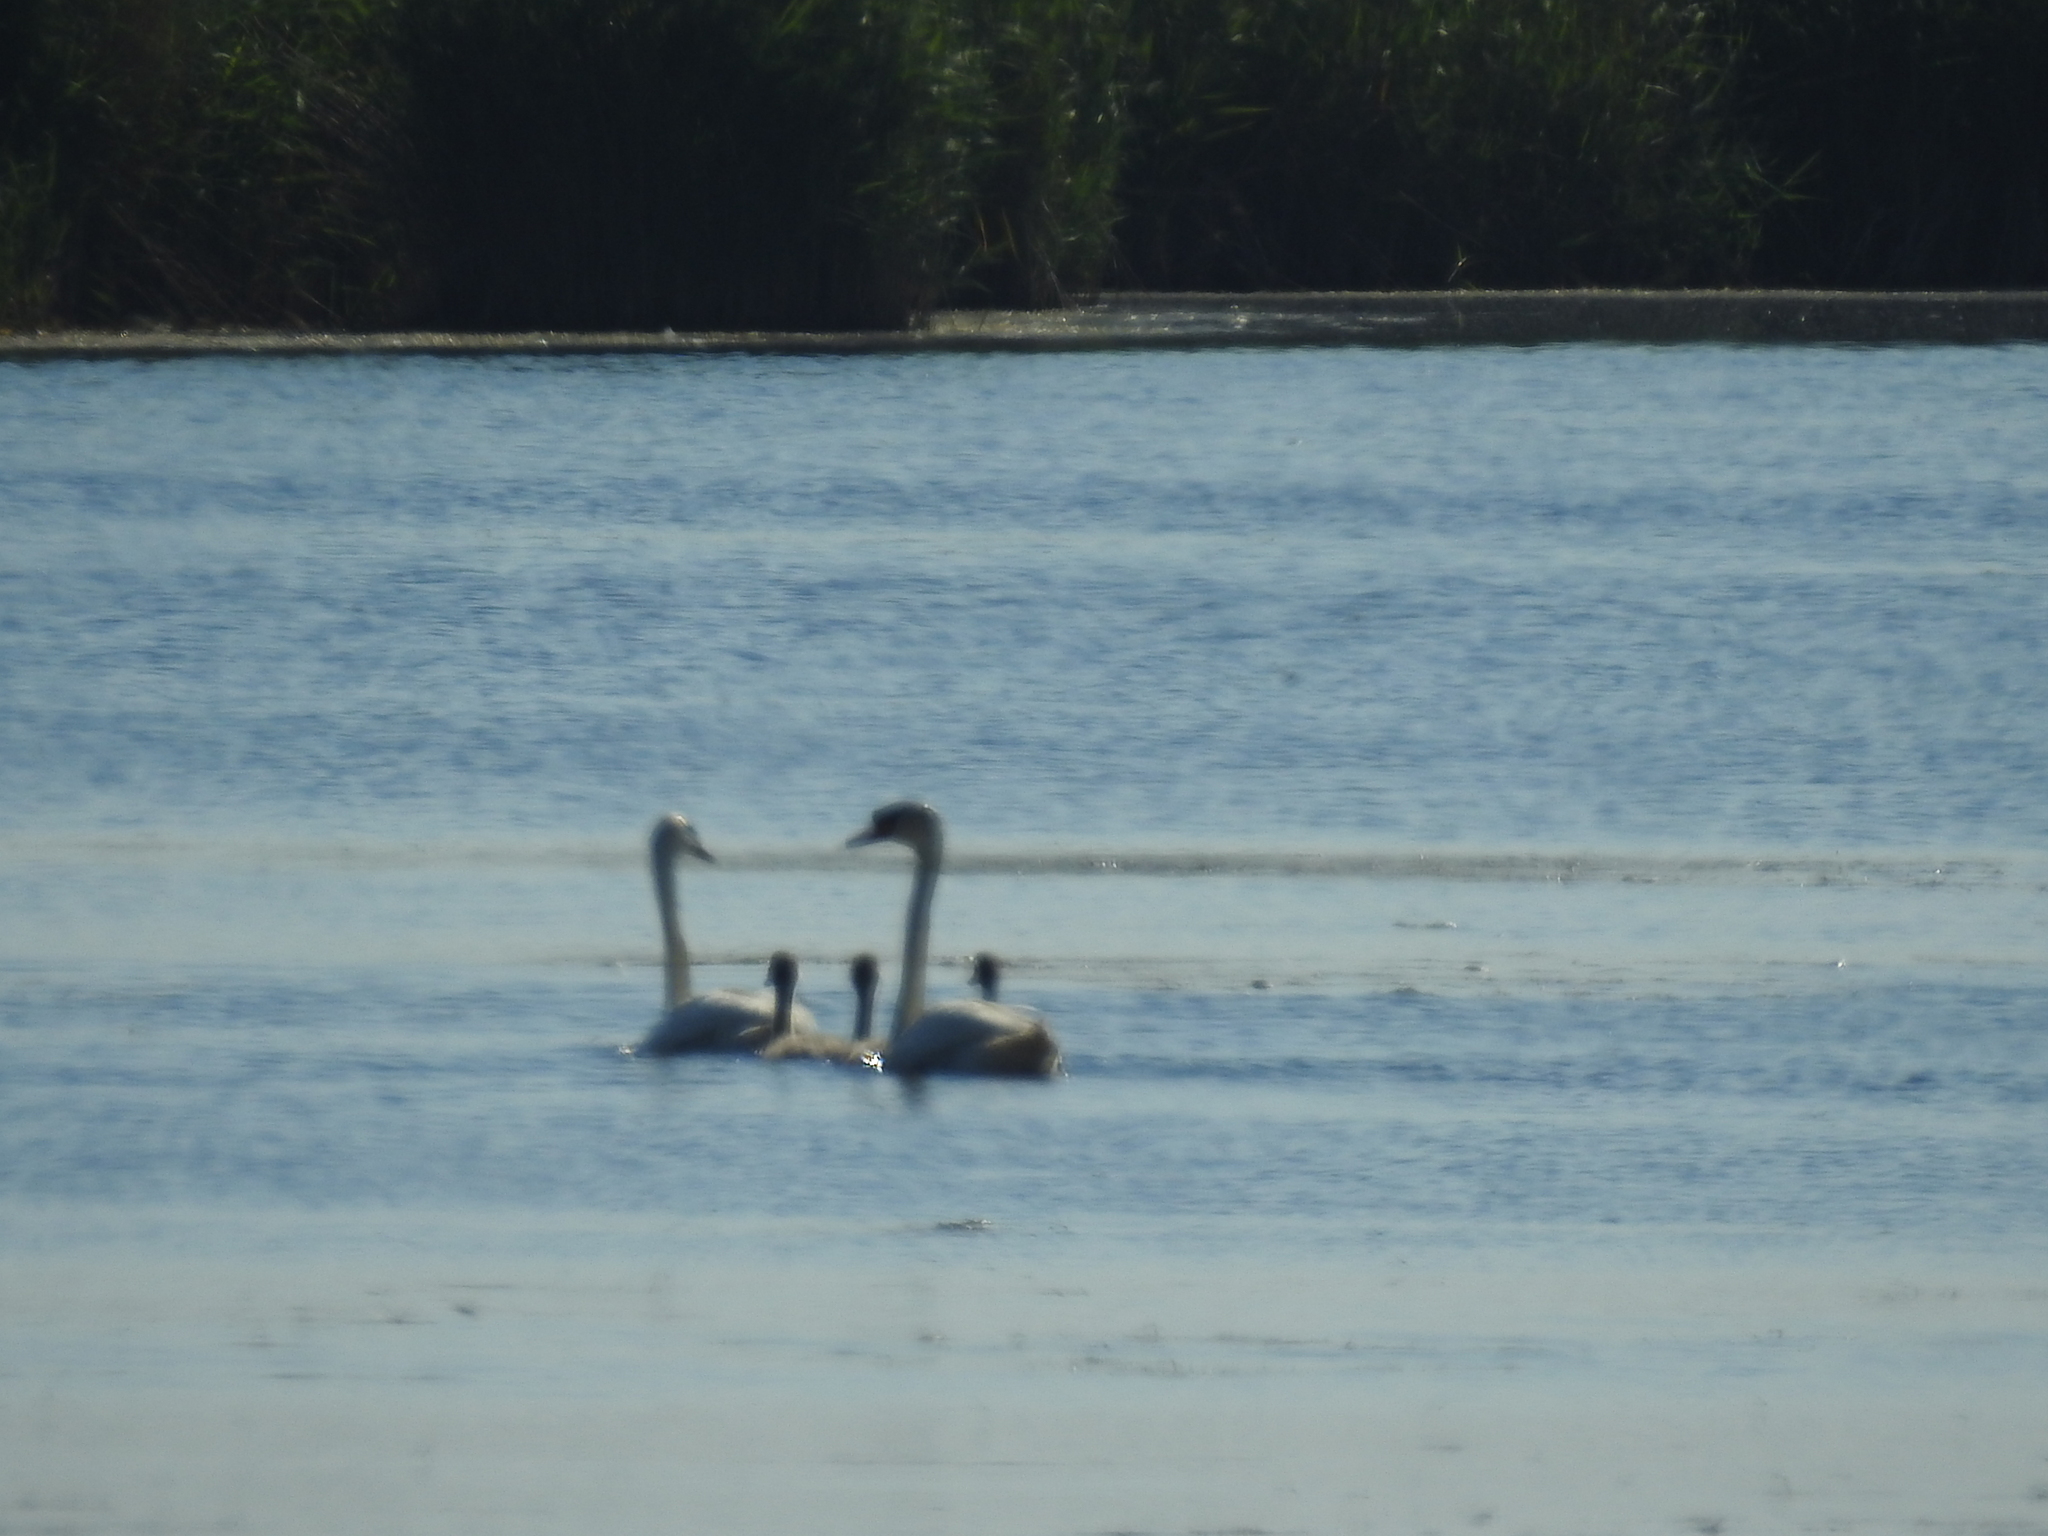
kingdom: Animalia
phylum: Chordata
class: Aves
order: Anseriformes
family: Anatidae
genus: Cygnus
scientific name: Cygnus olor
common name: Mute swan
